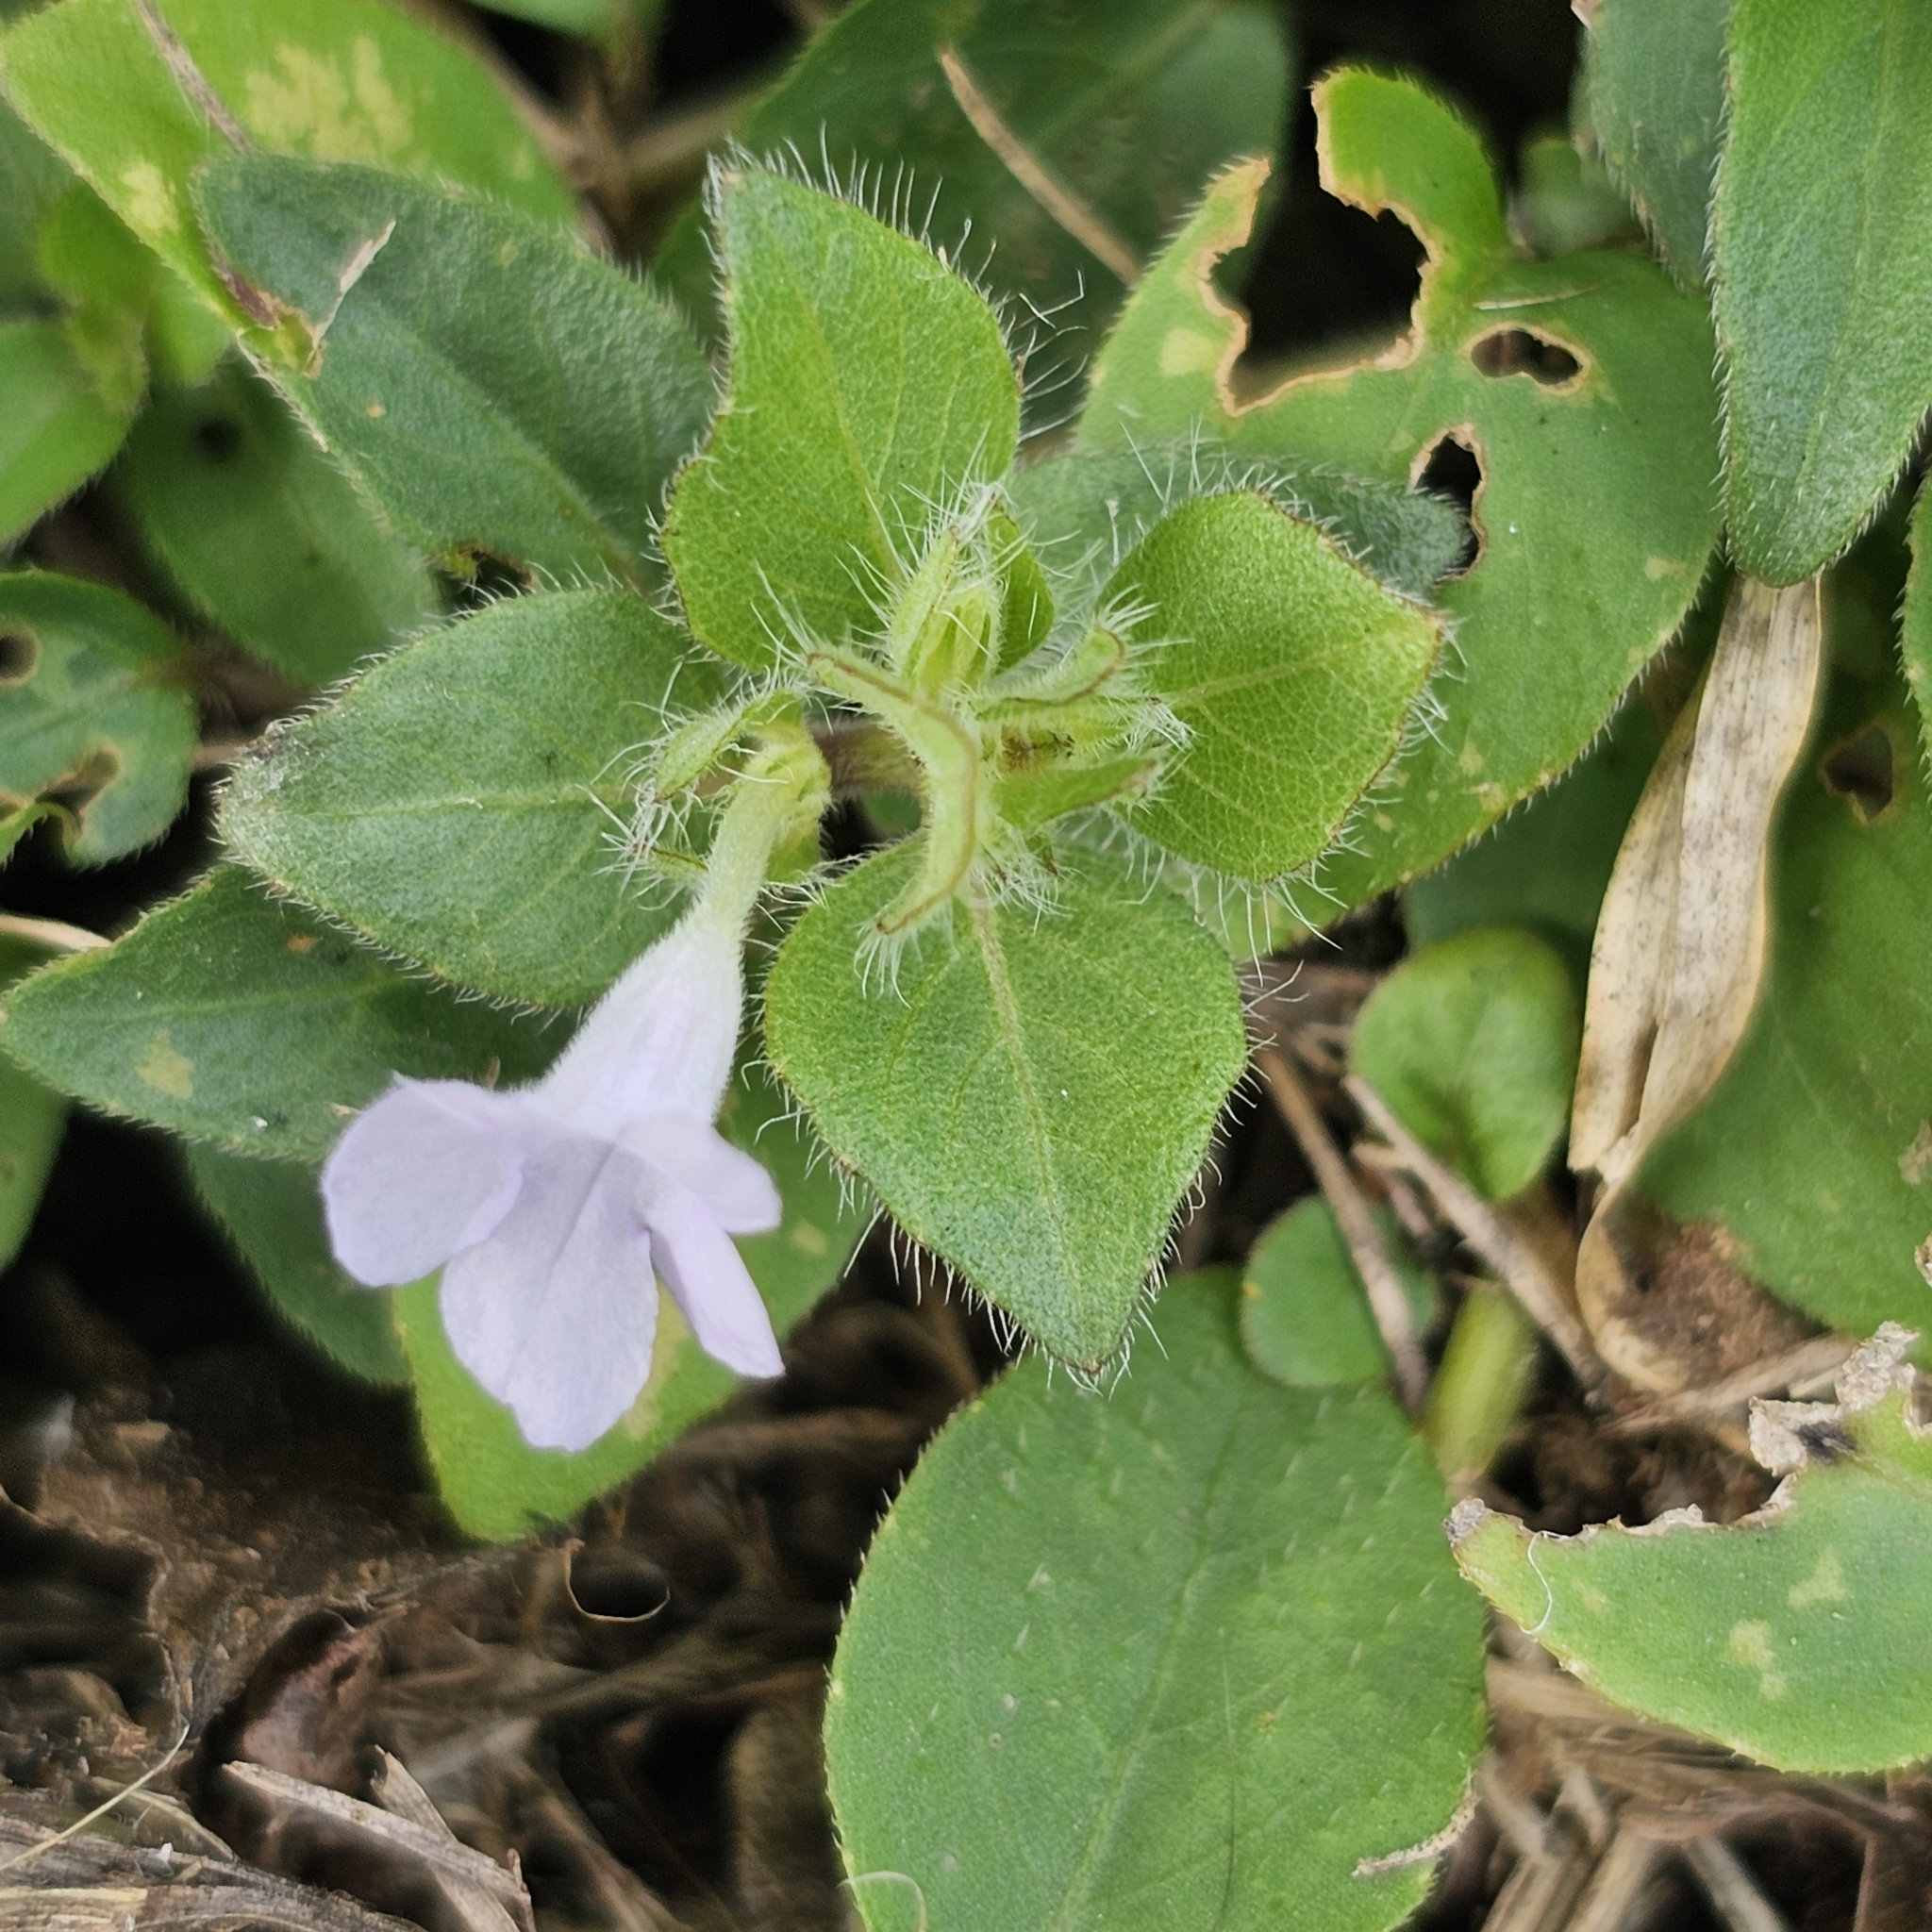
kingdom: Plantae
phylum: Tracheophyta
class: Magnoliopsida
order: Lamiales
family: Acanthaceae
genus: Ruellia
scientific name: Ruellia blechum
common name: Browne's blechum
